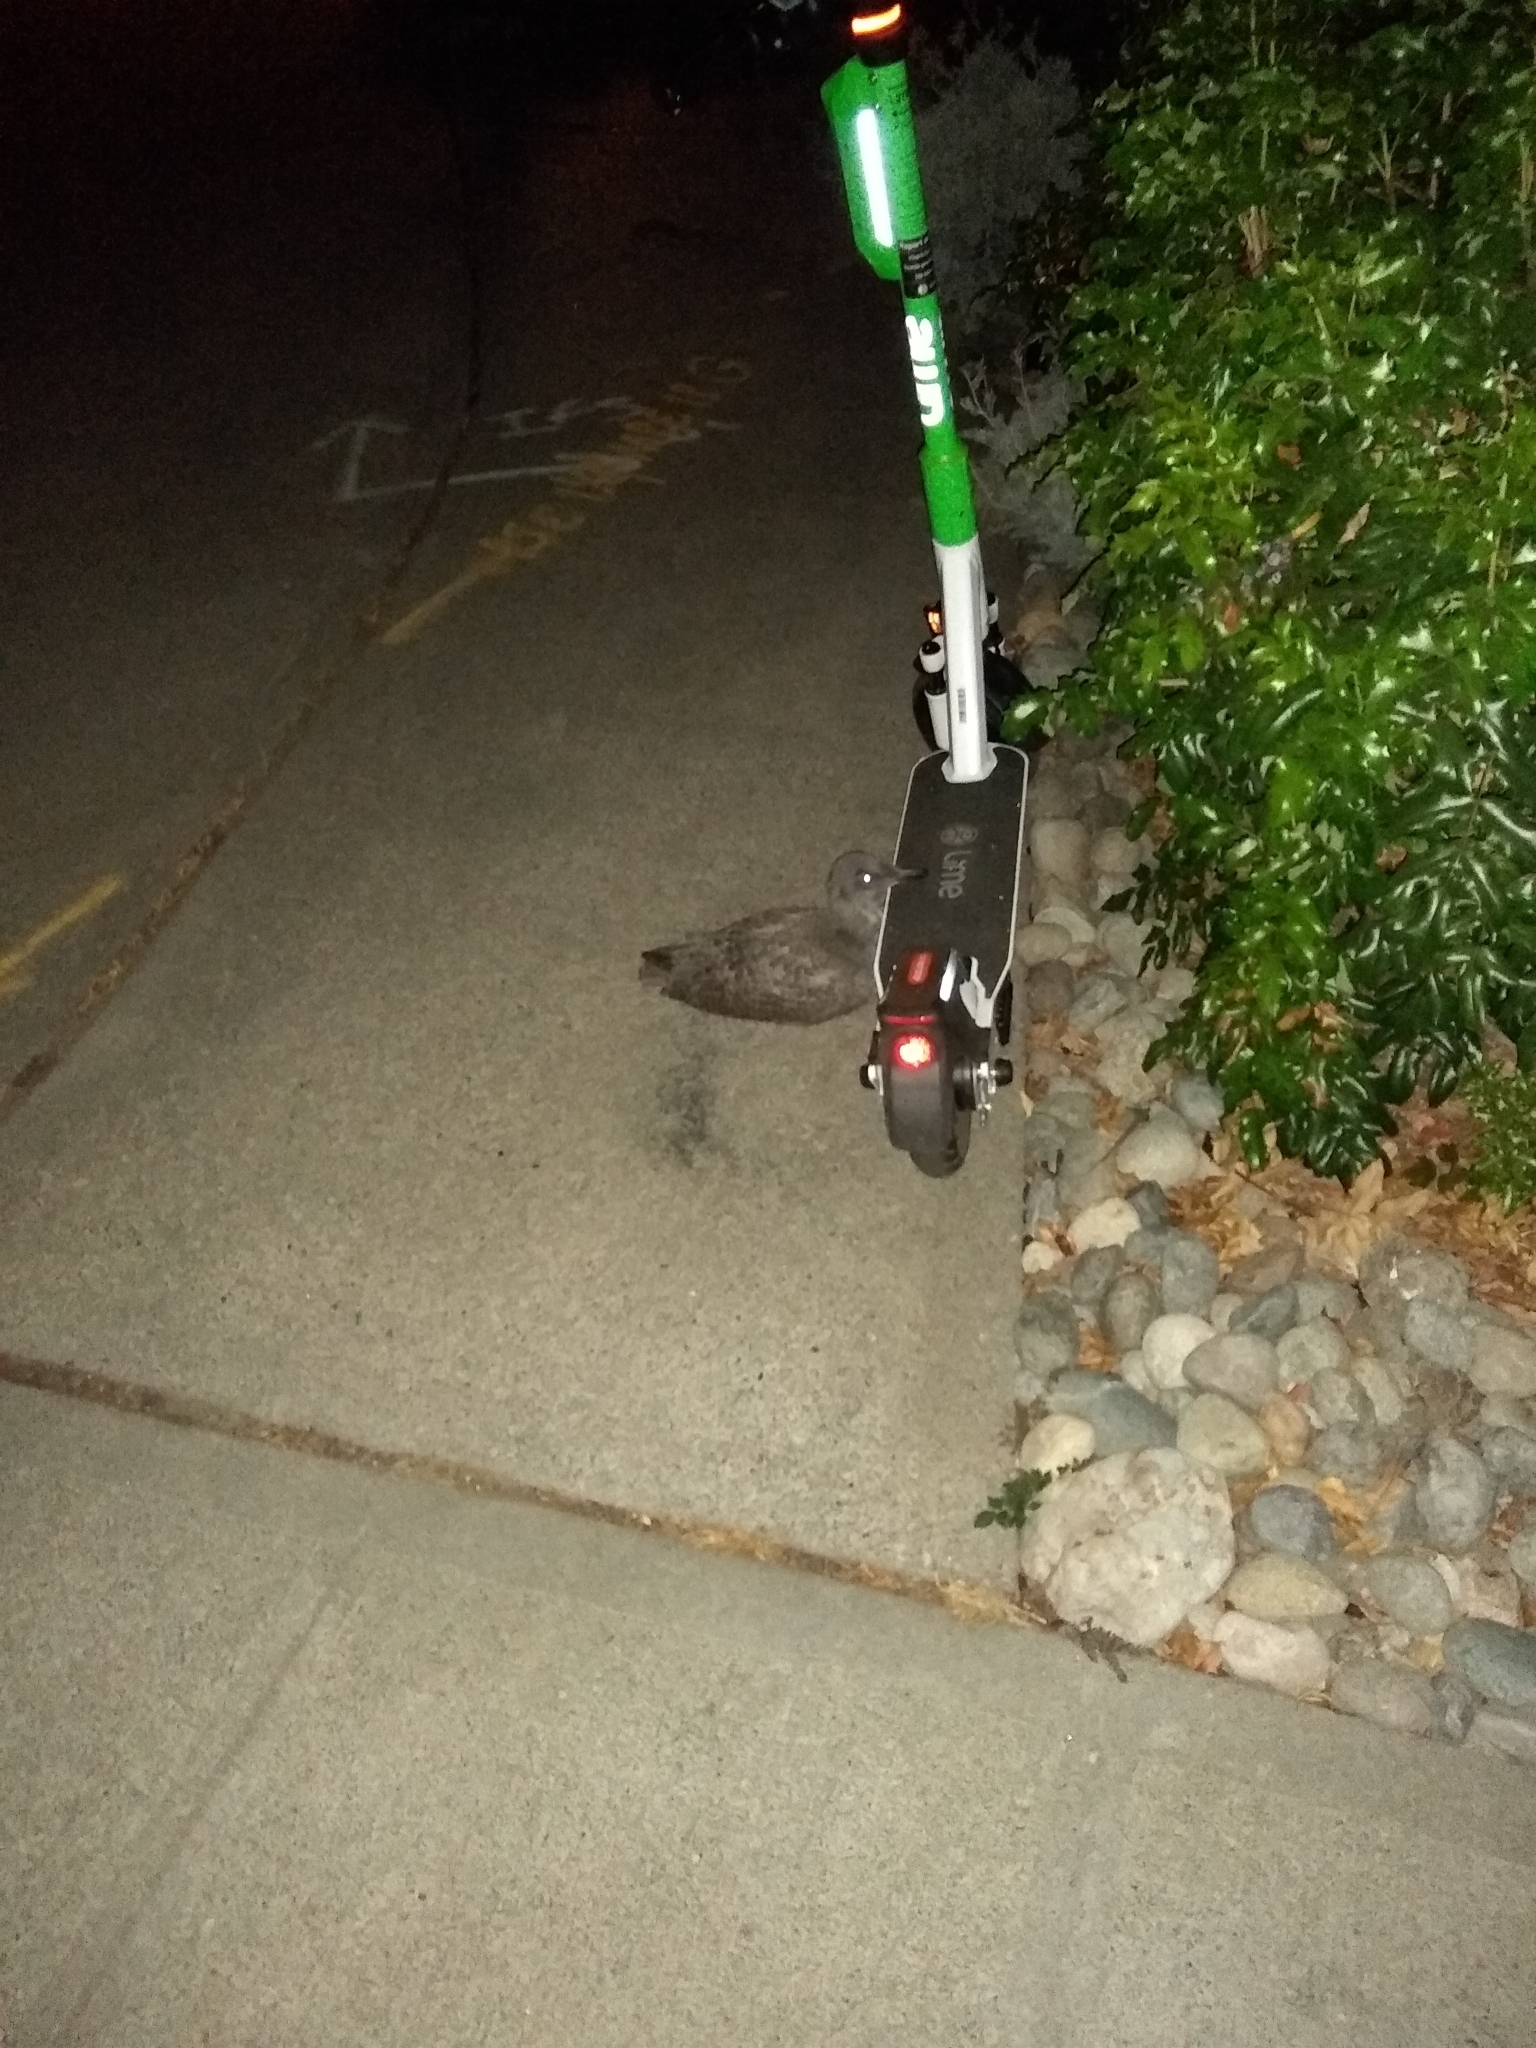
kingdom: Animalia
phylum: Chordata
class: Aves
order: Charadriiformes
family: Laridae
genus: Larus
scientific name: Larus
